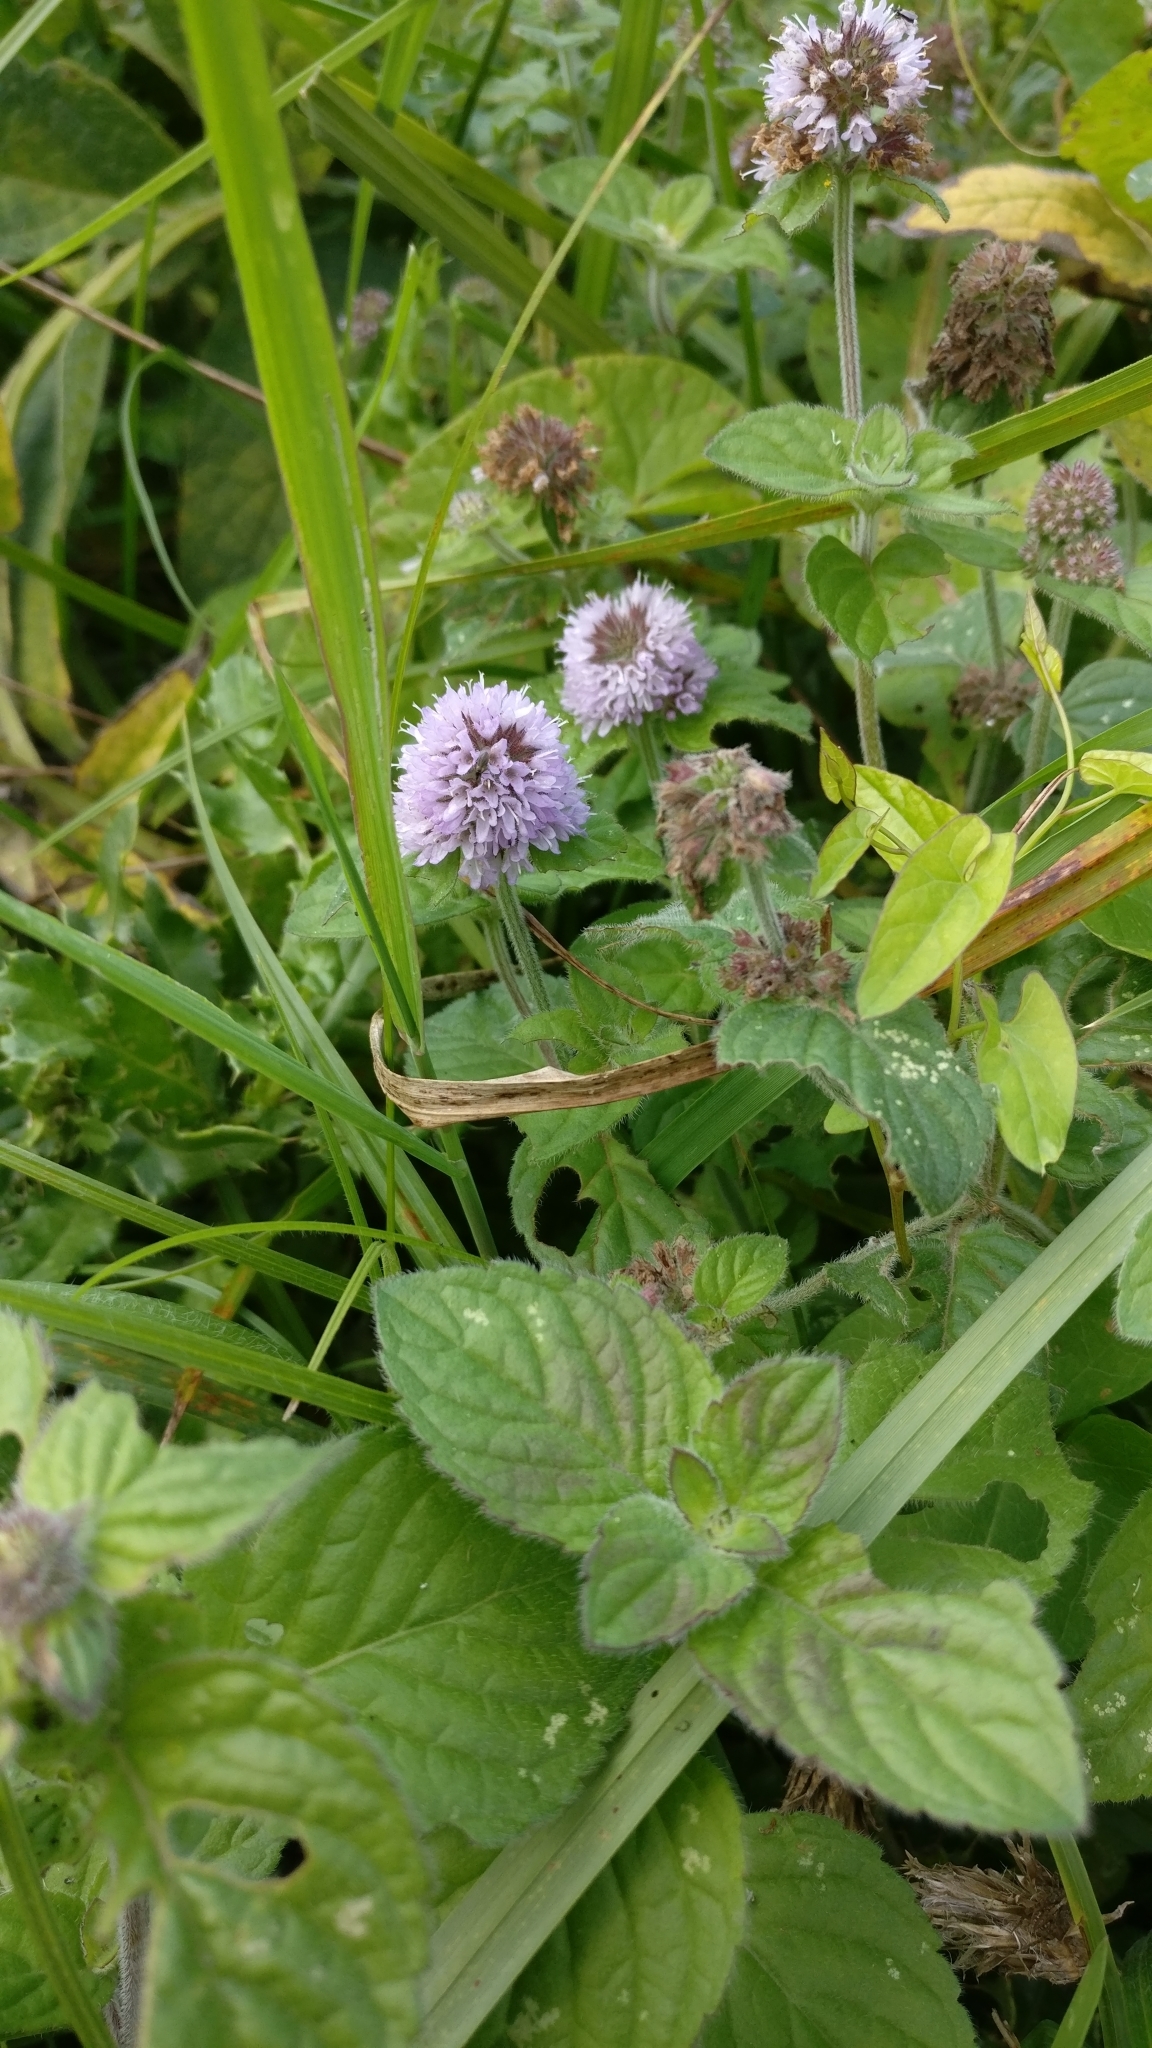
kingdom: Plantae
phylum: Tracheophyta
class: Magnoliopsida
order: Lamiales
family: Lamiaceae
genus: Mentha
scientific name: Mentha aquatica
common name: Water mint
